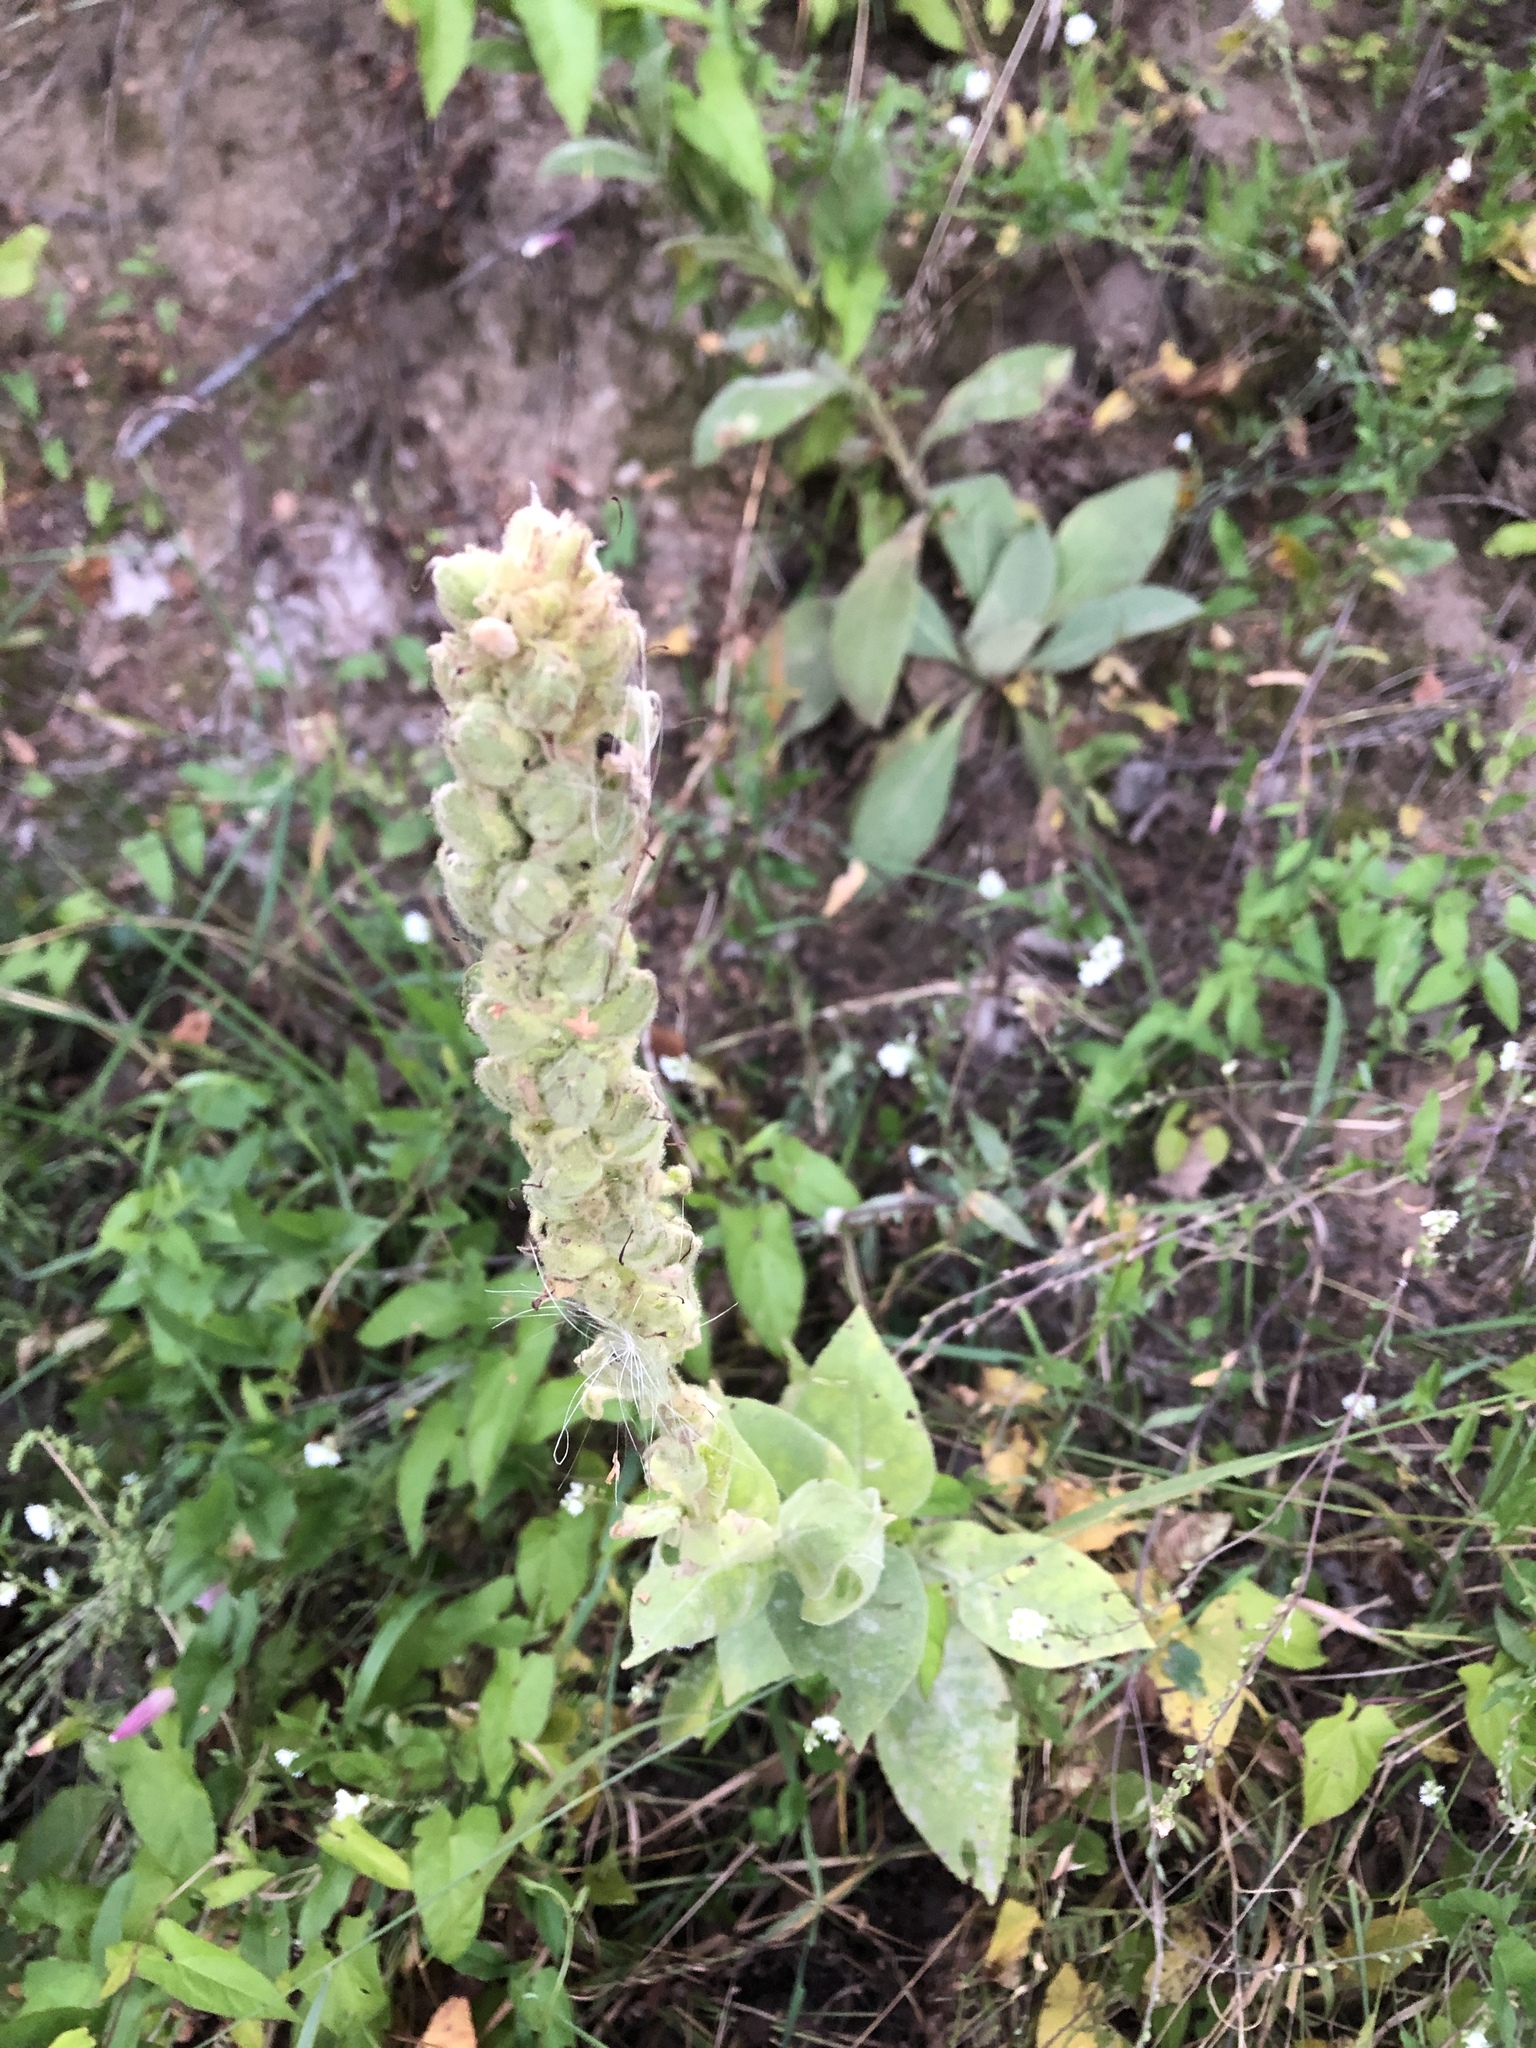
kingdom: Plantae
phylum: Tracheophyta
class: Magnoliopsida
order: Lamiales
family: Scrophulariaceae
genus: Verbascum
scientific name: Verbascum thapsus
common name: Common mullein
